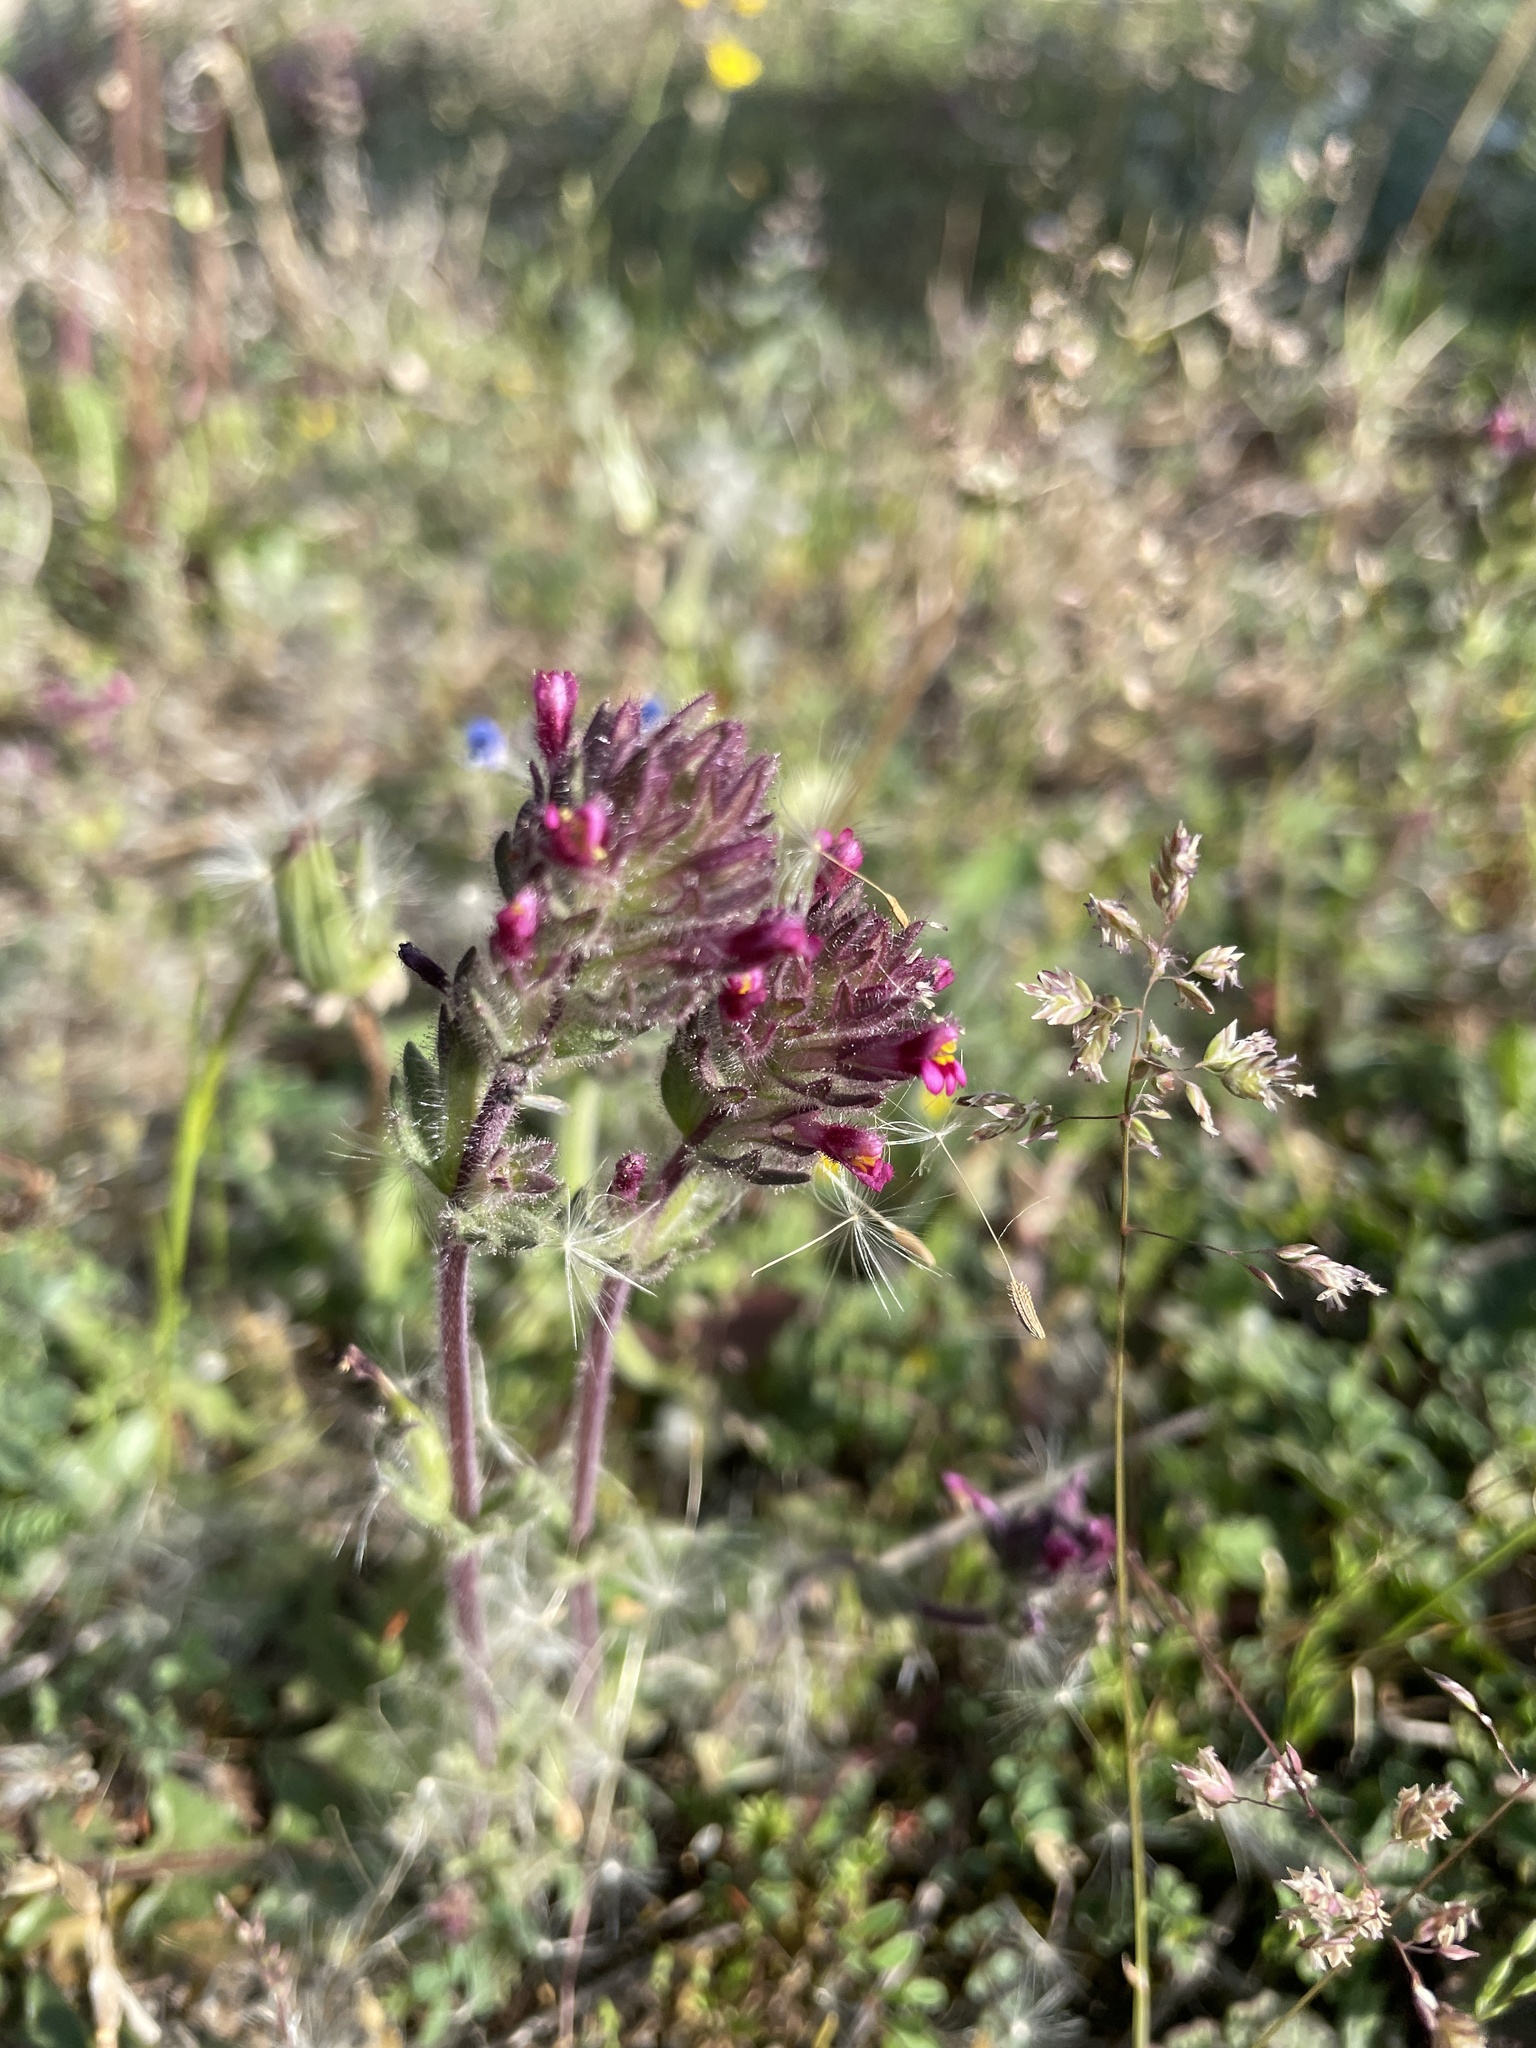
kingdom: Plantae
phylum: Tracheophyta
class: Magnoliopsida
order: Lamiales
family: Orobanchaceae
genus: Parentucellia
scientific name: Parentucellia latifolia
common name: Broadleaf glandweed
